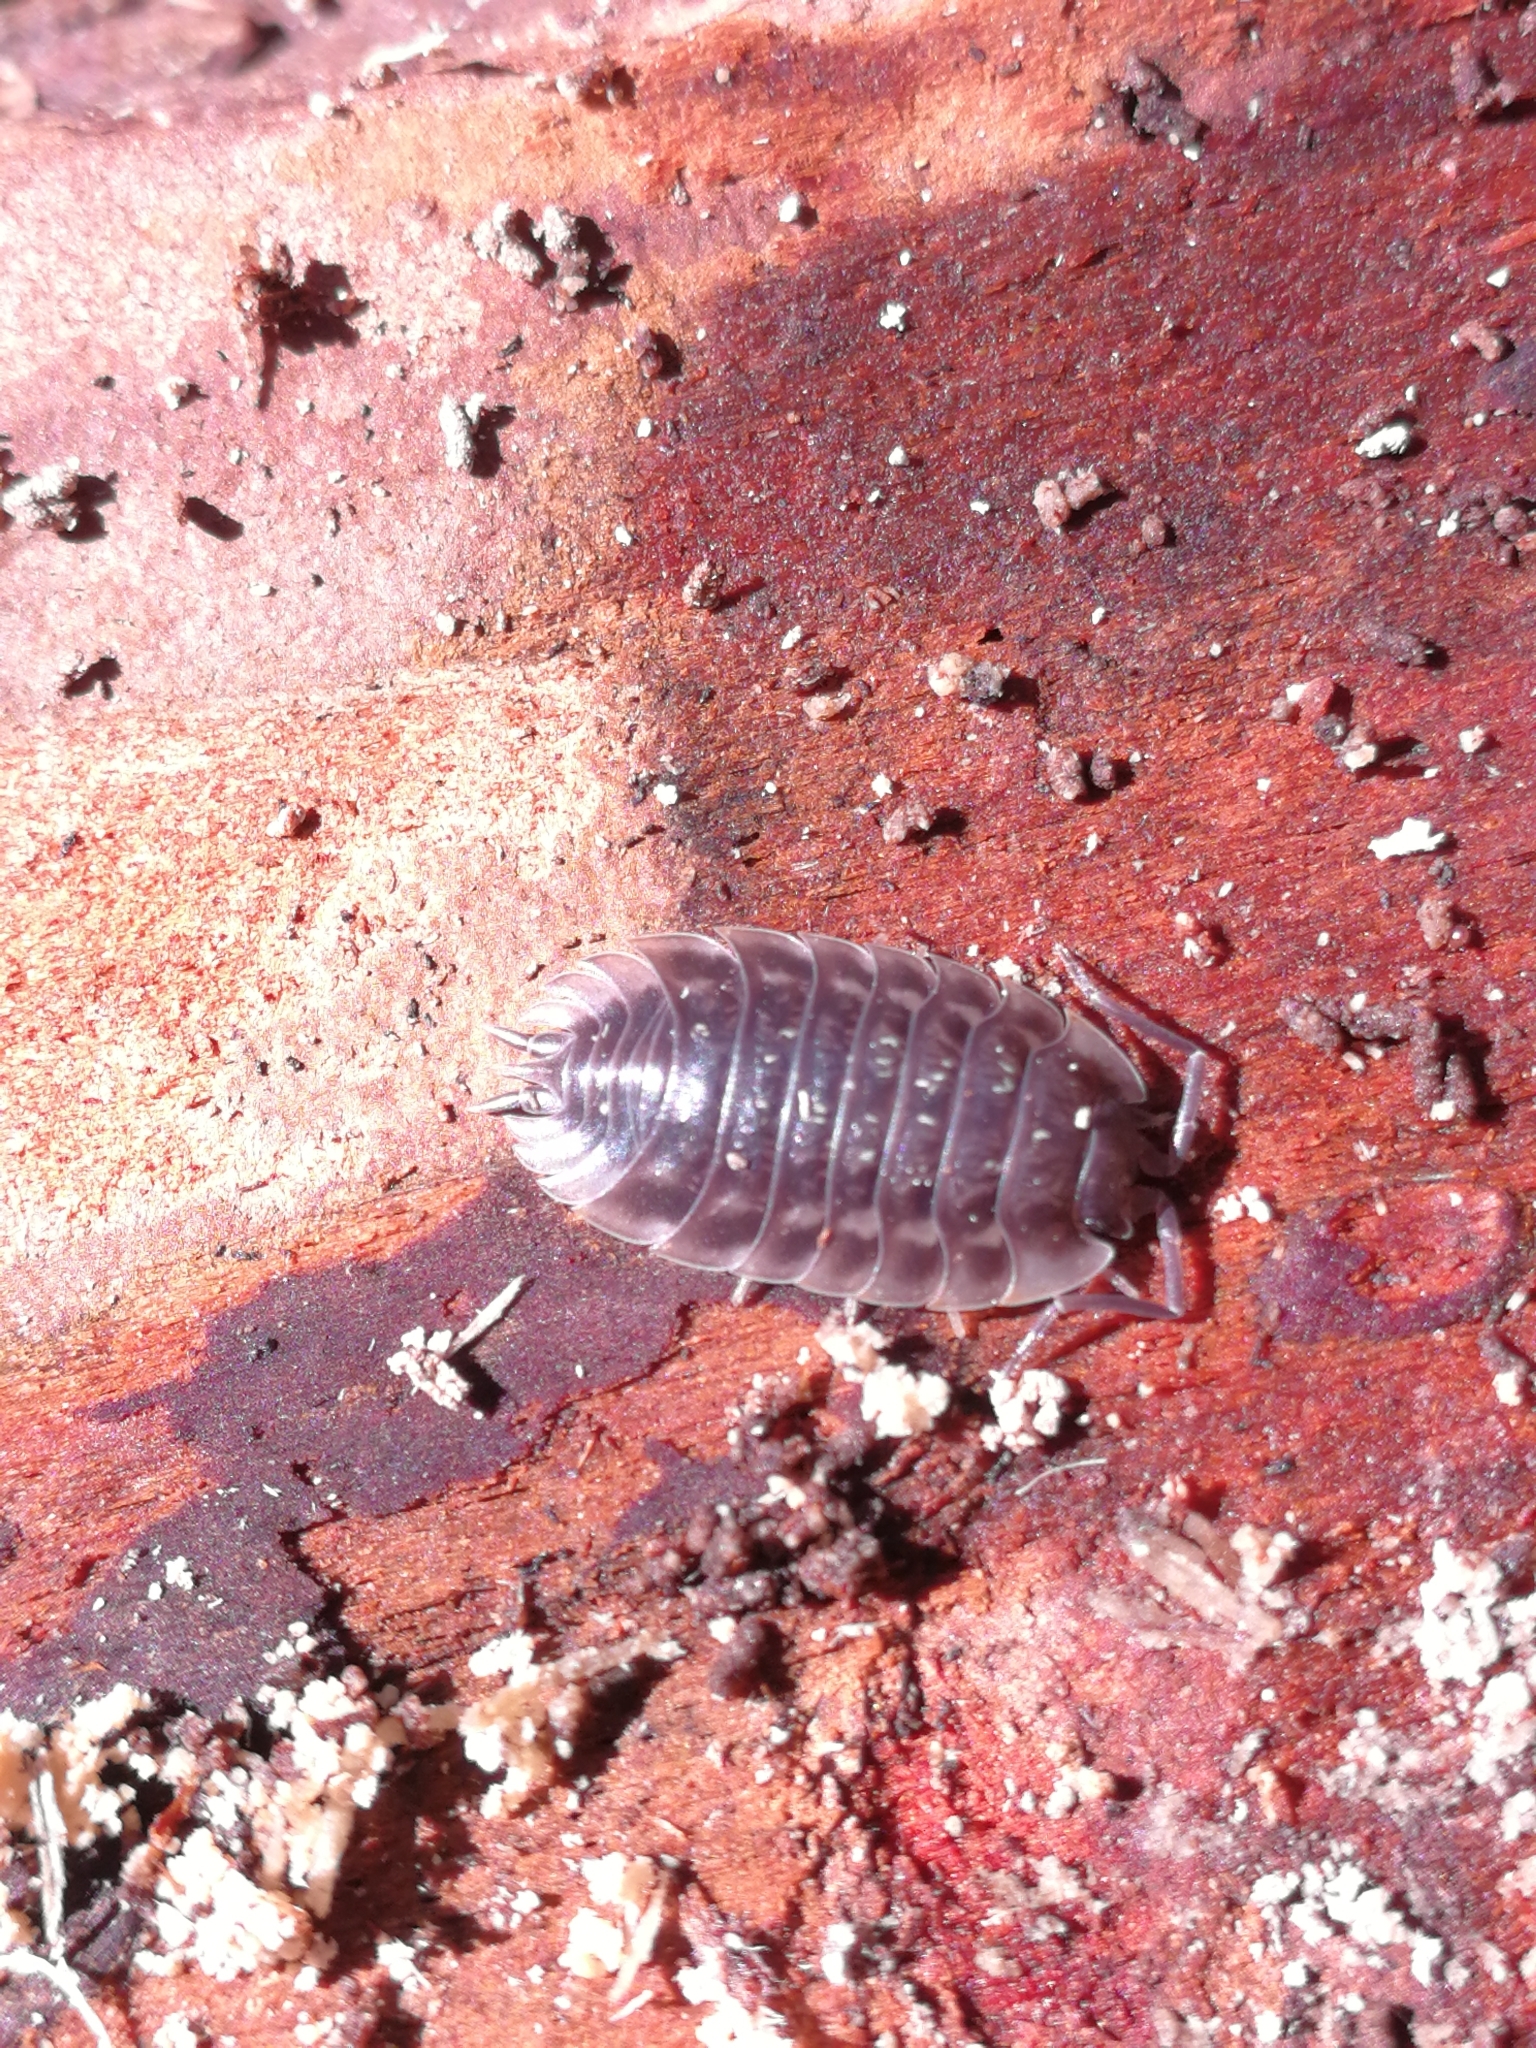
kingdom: Animalia
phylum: Arthropoda
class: Malacostraca
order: Isopoda
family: Oniscidae
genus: Oniscus
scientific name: Oniscus asellus
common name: Common shiny woodlouse
